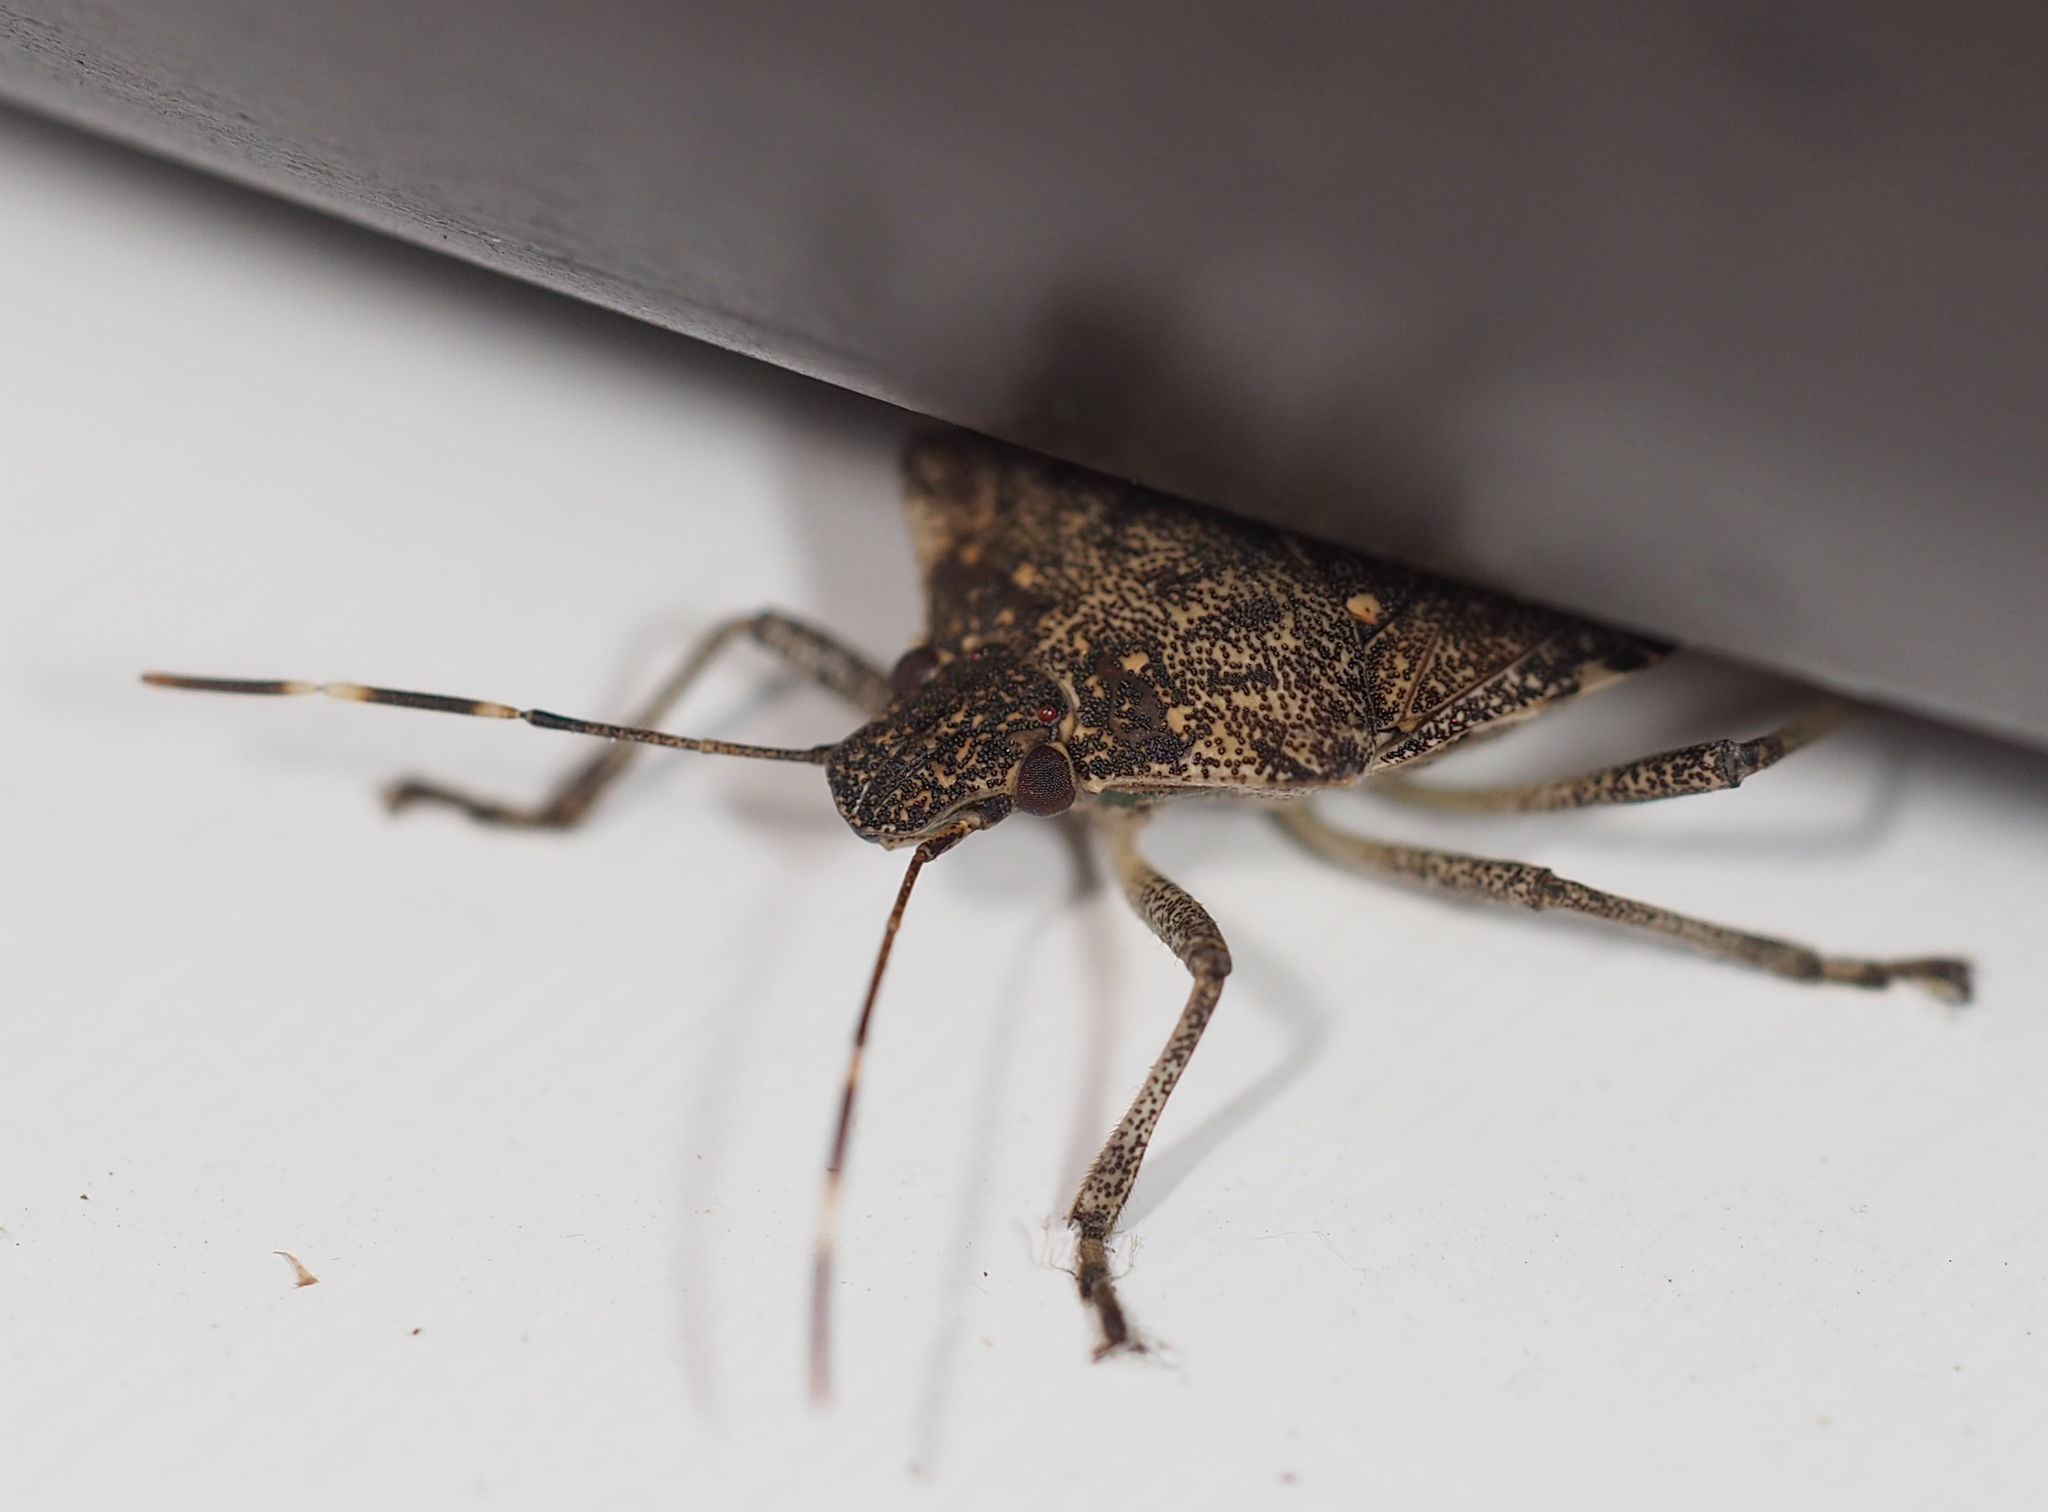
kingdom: Animalia
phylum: Arthropoda
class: Insecta
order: Hemiptera
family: Pentatomidae
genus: Halyomorpha
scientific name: Halyomorpha halys
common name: Brown marmorated stink bug
